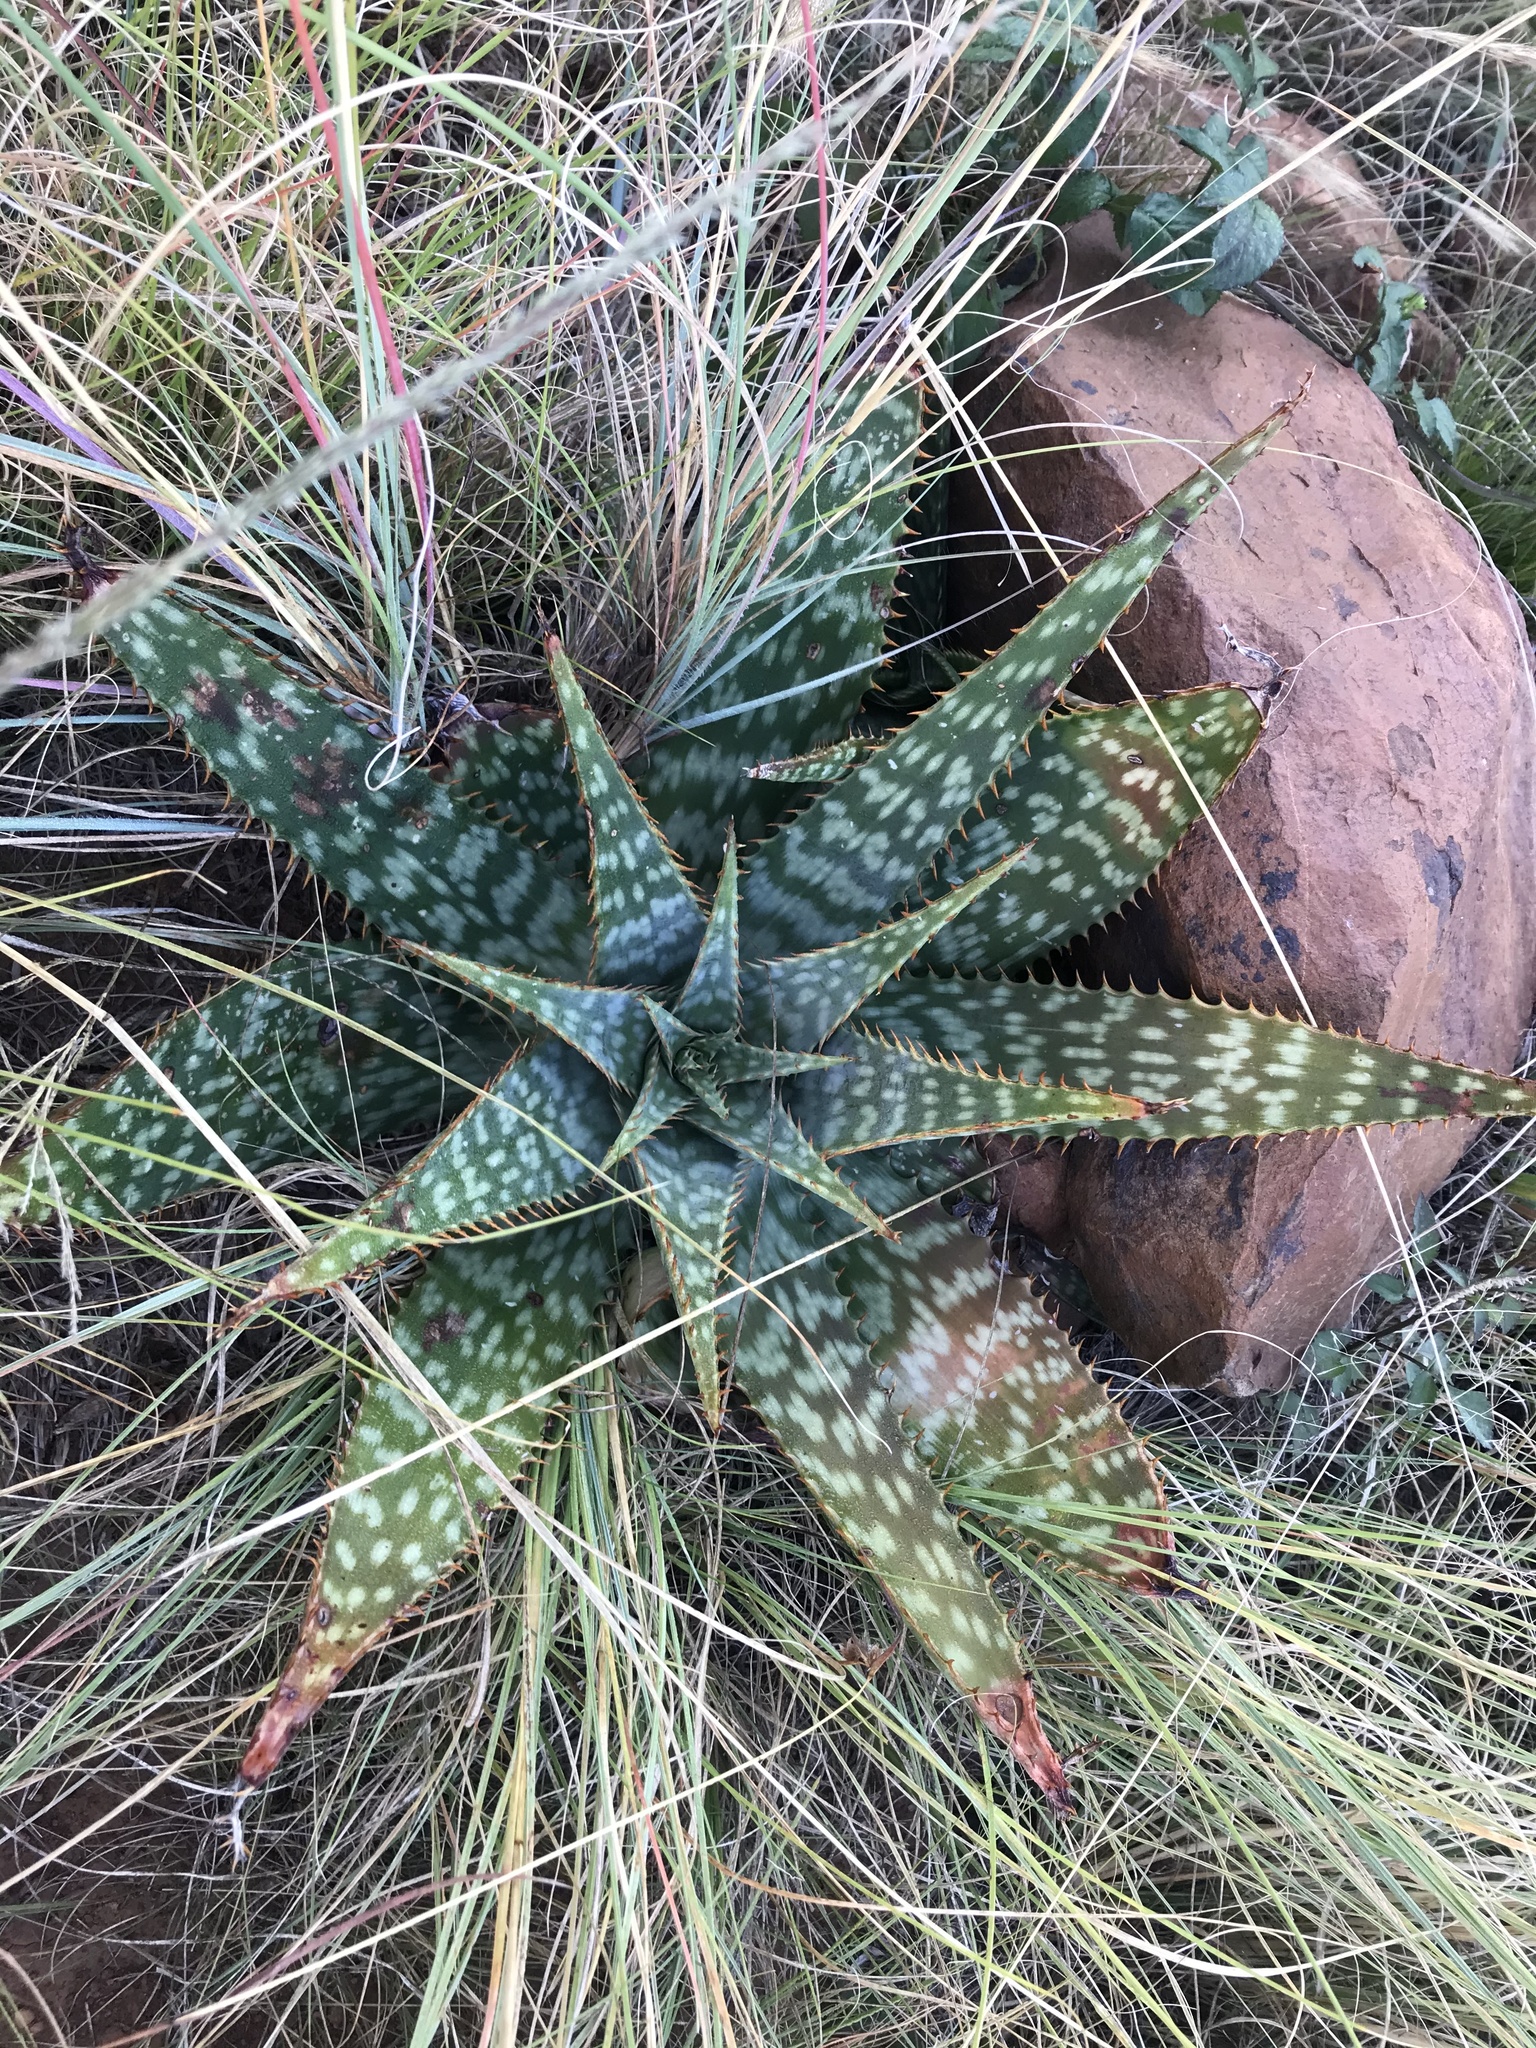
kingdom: Plantae
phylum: Tracheophyta
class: Liliopsida
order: Asparagales
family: Asphodelaceae
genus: Aloe
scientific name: Aloe davyana
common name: Spotted aloe
